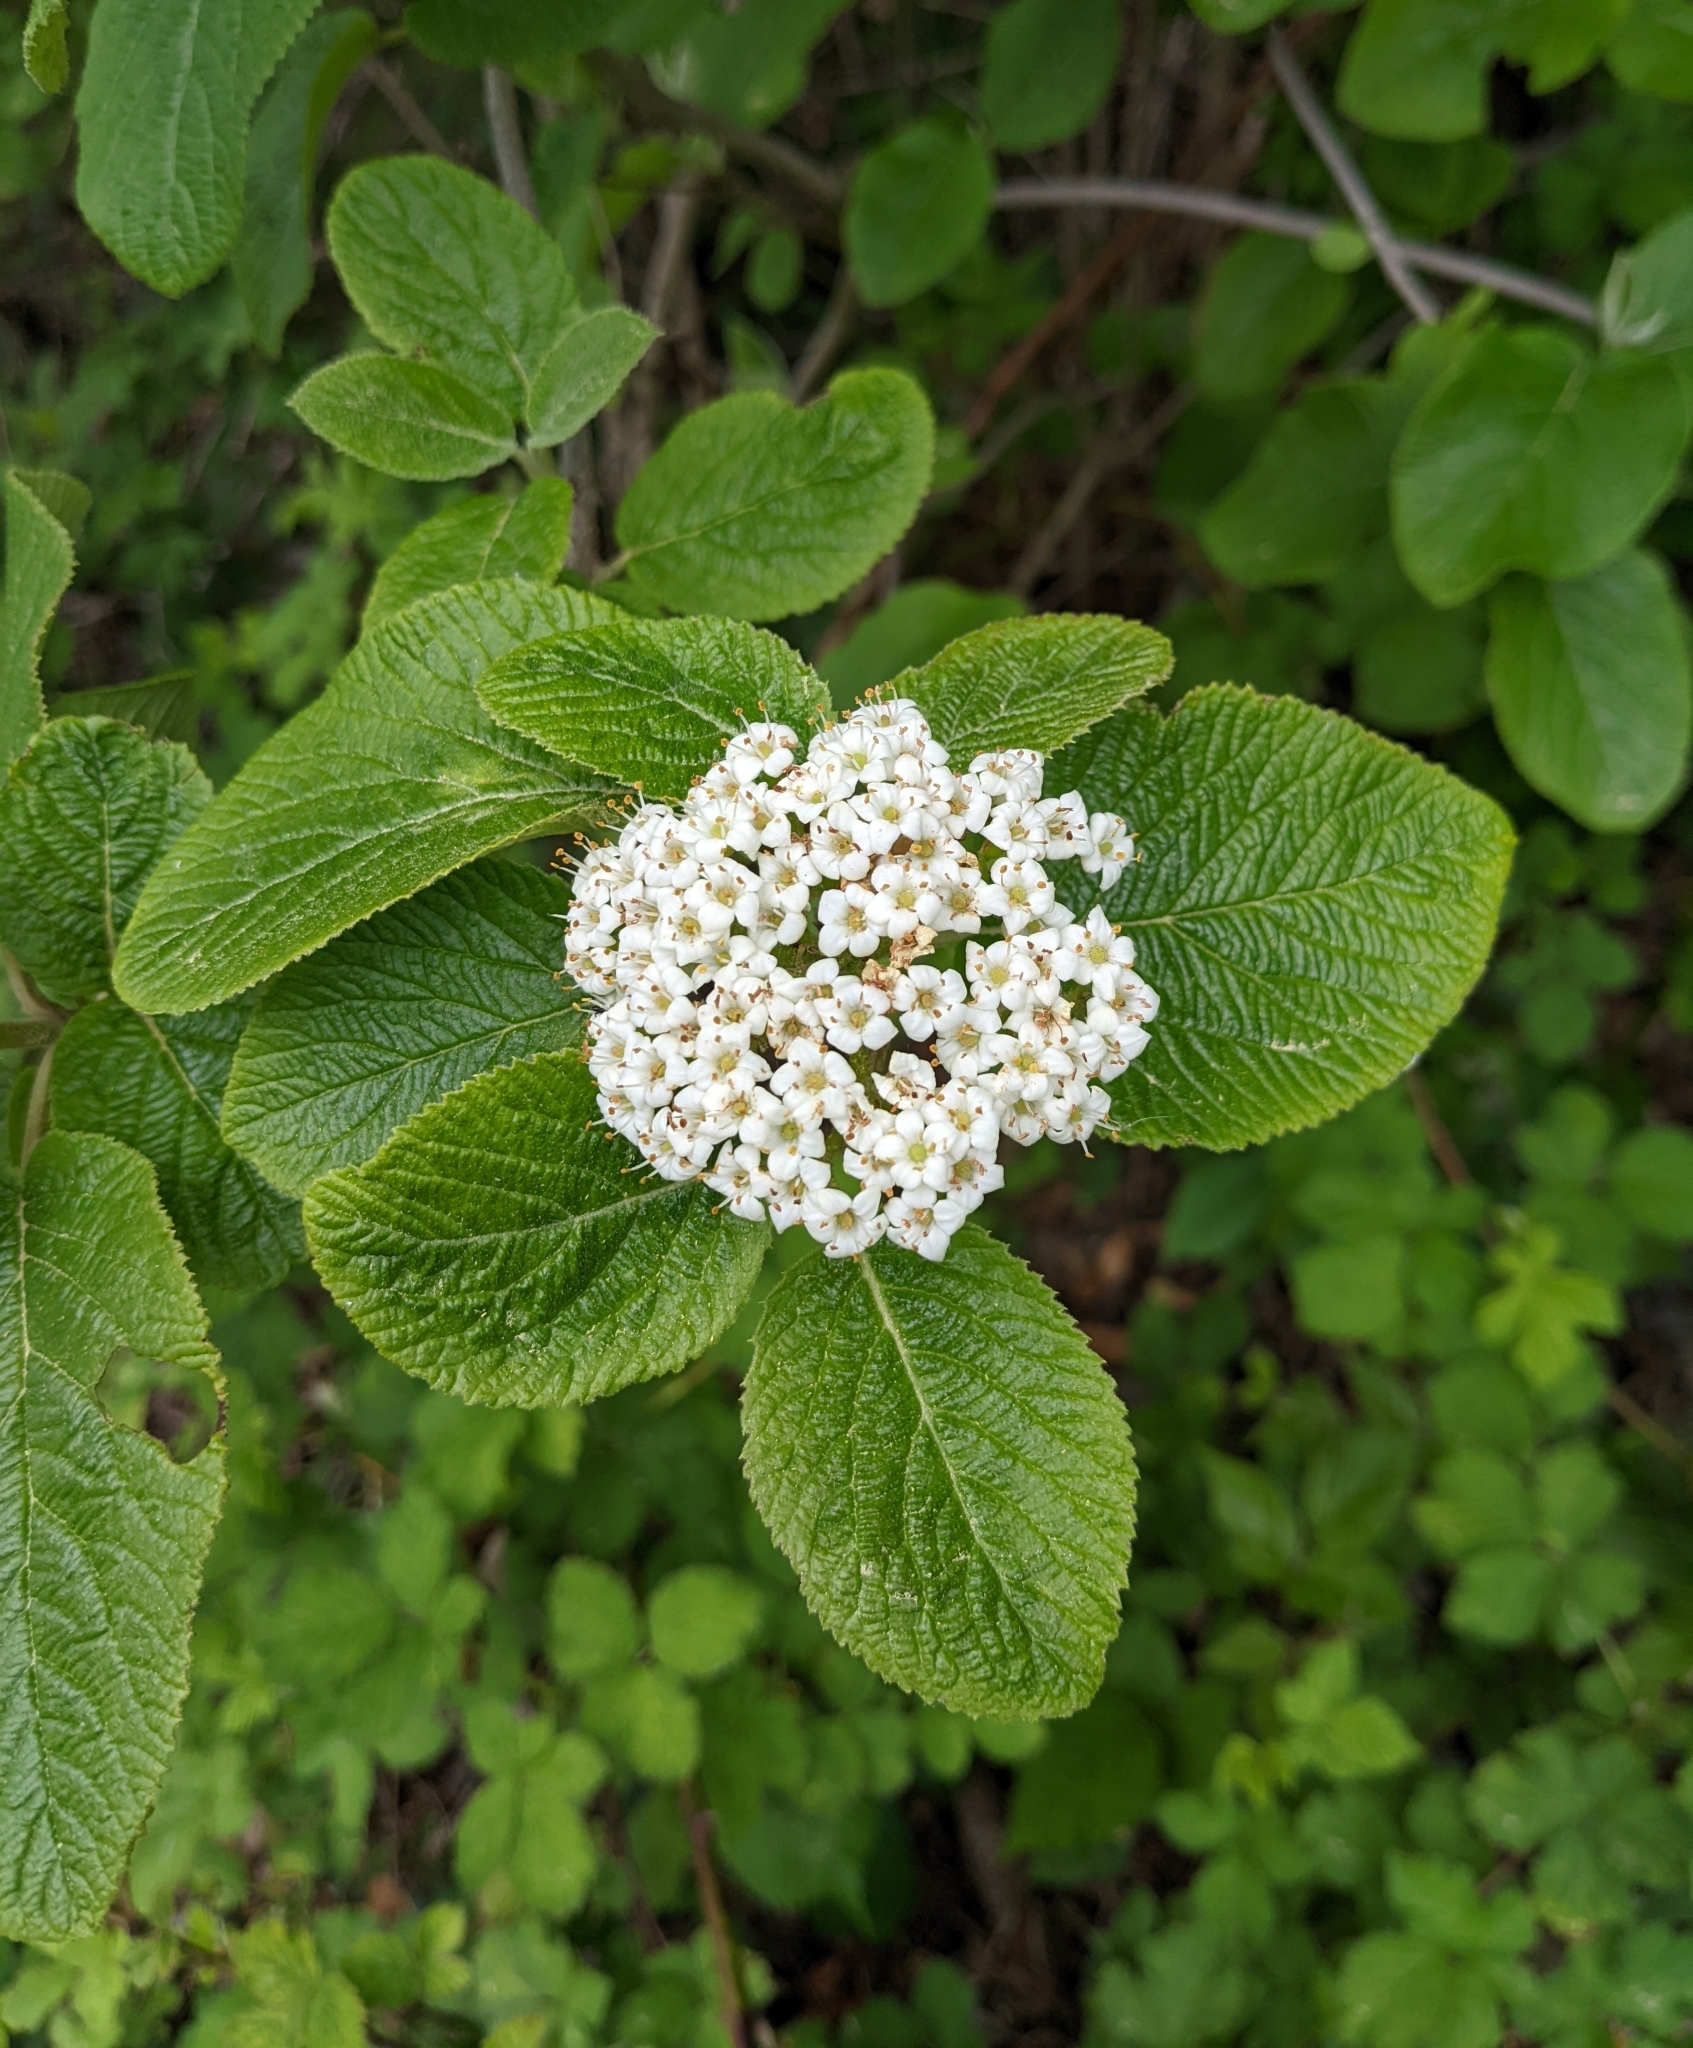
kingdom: Plantae
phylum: Tracheophyta
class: Magnoliopsida
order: Dipsacales
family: Viburnaceae
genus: Viburnum
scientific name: Viburnum lantana
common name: Wayfaring tree
